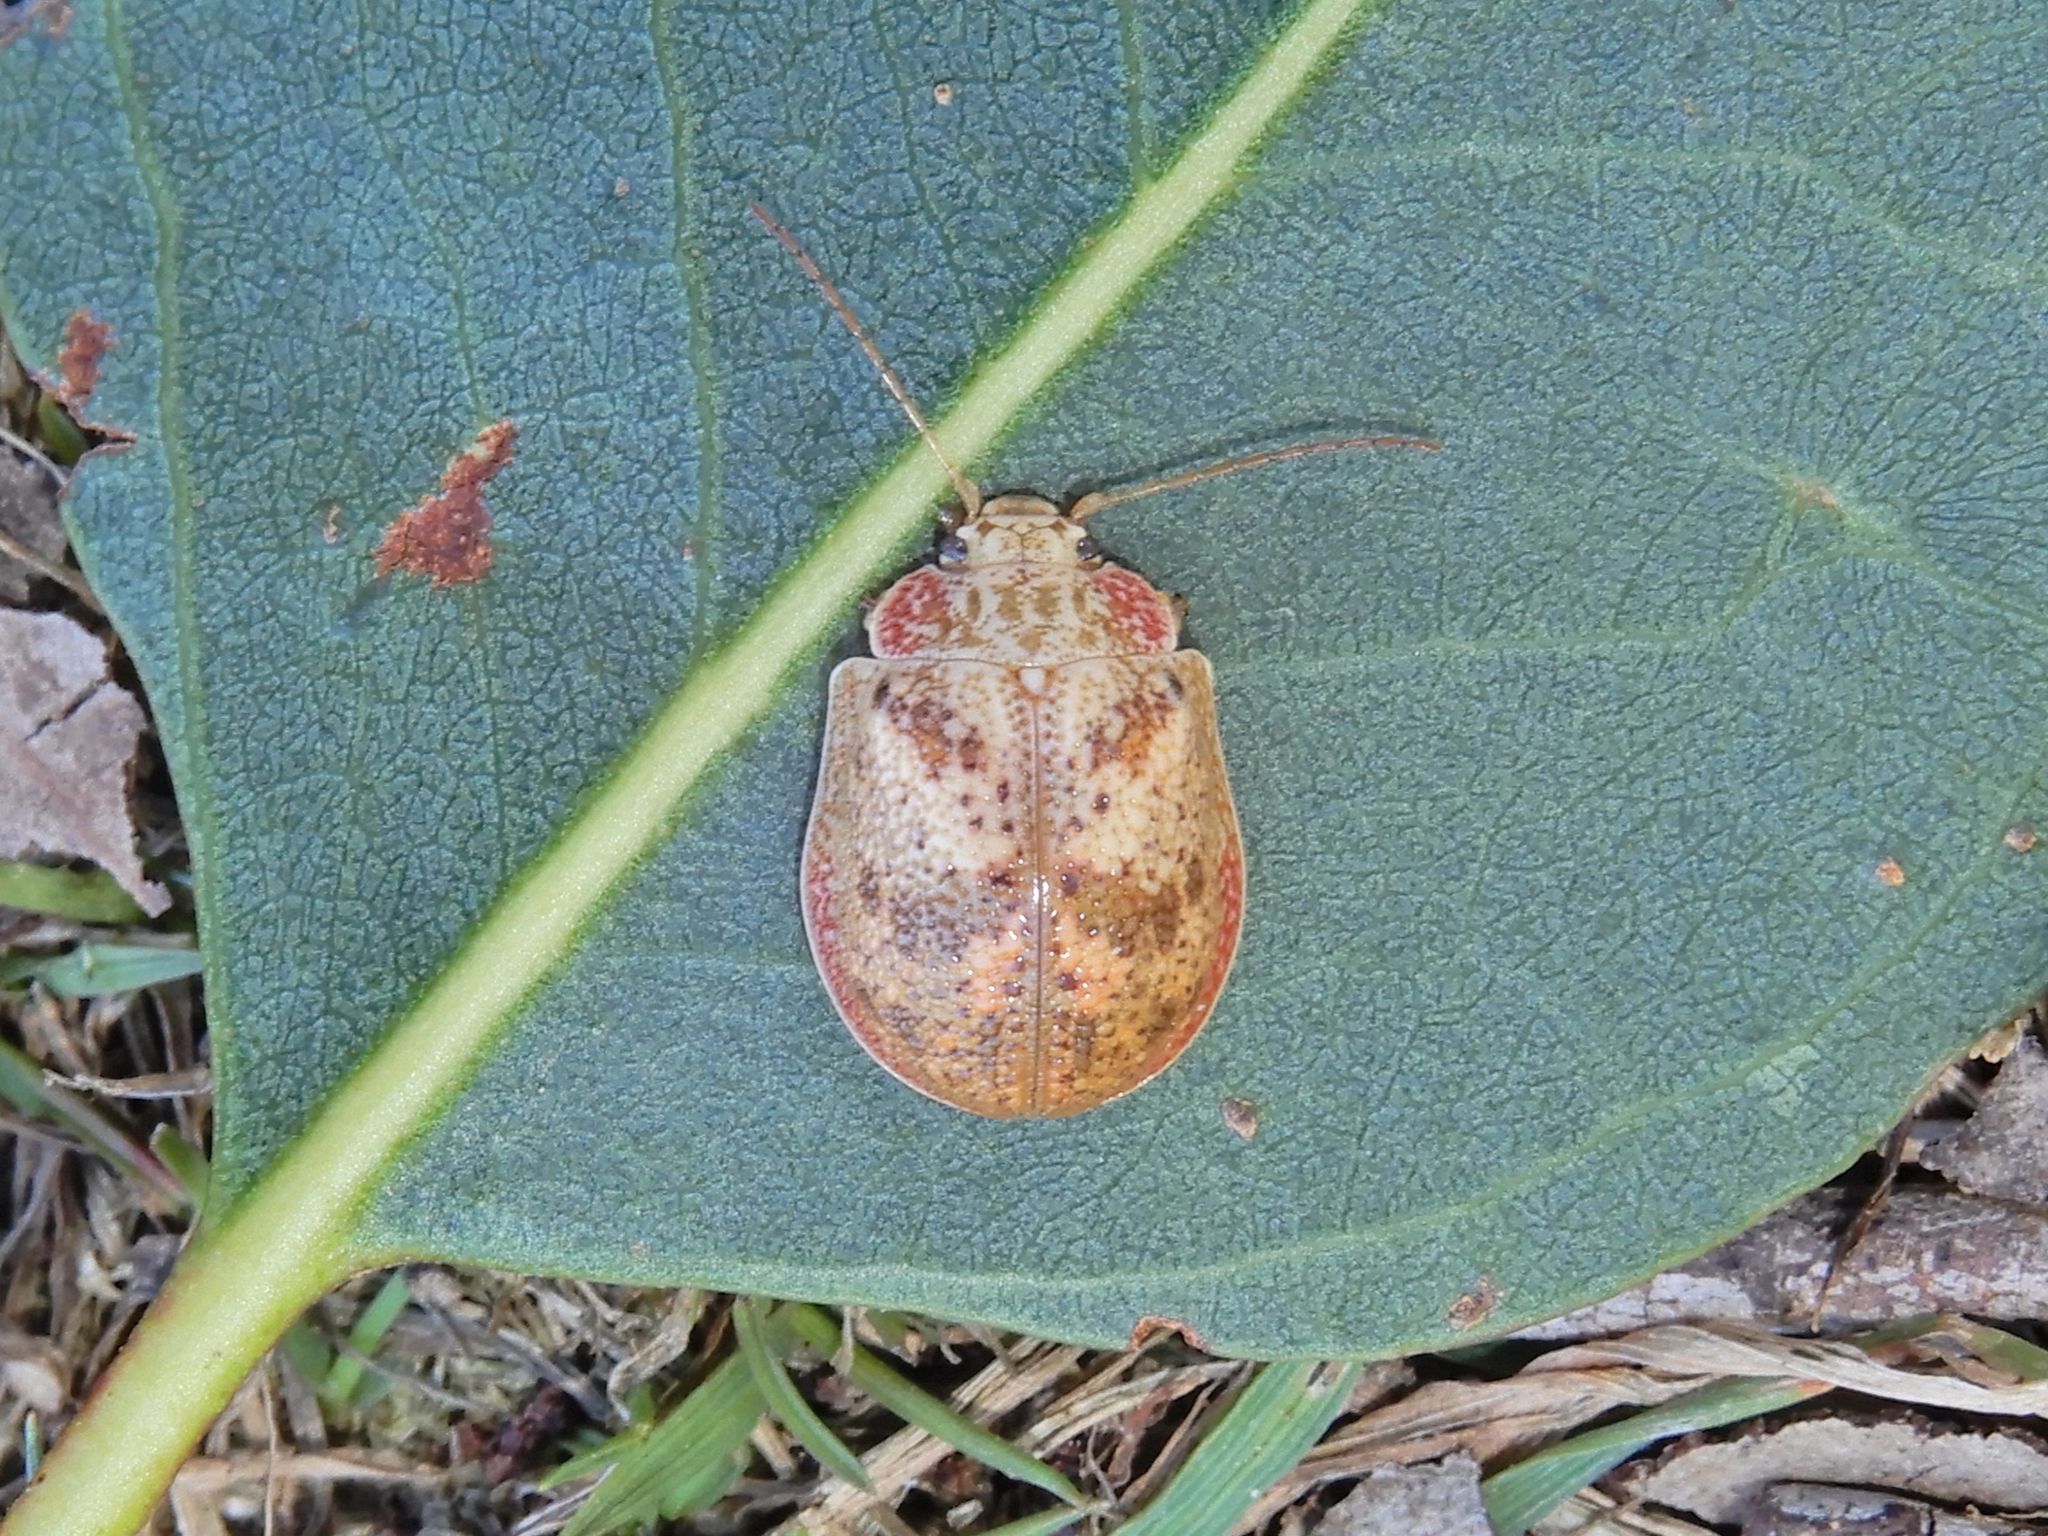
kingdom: Animalia
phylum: Arthropoda
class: Insecta
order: Coleoptera
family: Chrysomelidae
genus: Paropsis
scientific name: Paropsis charybdis
